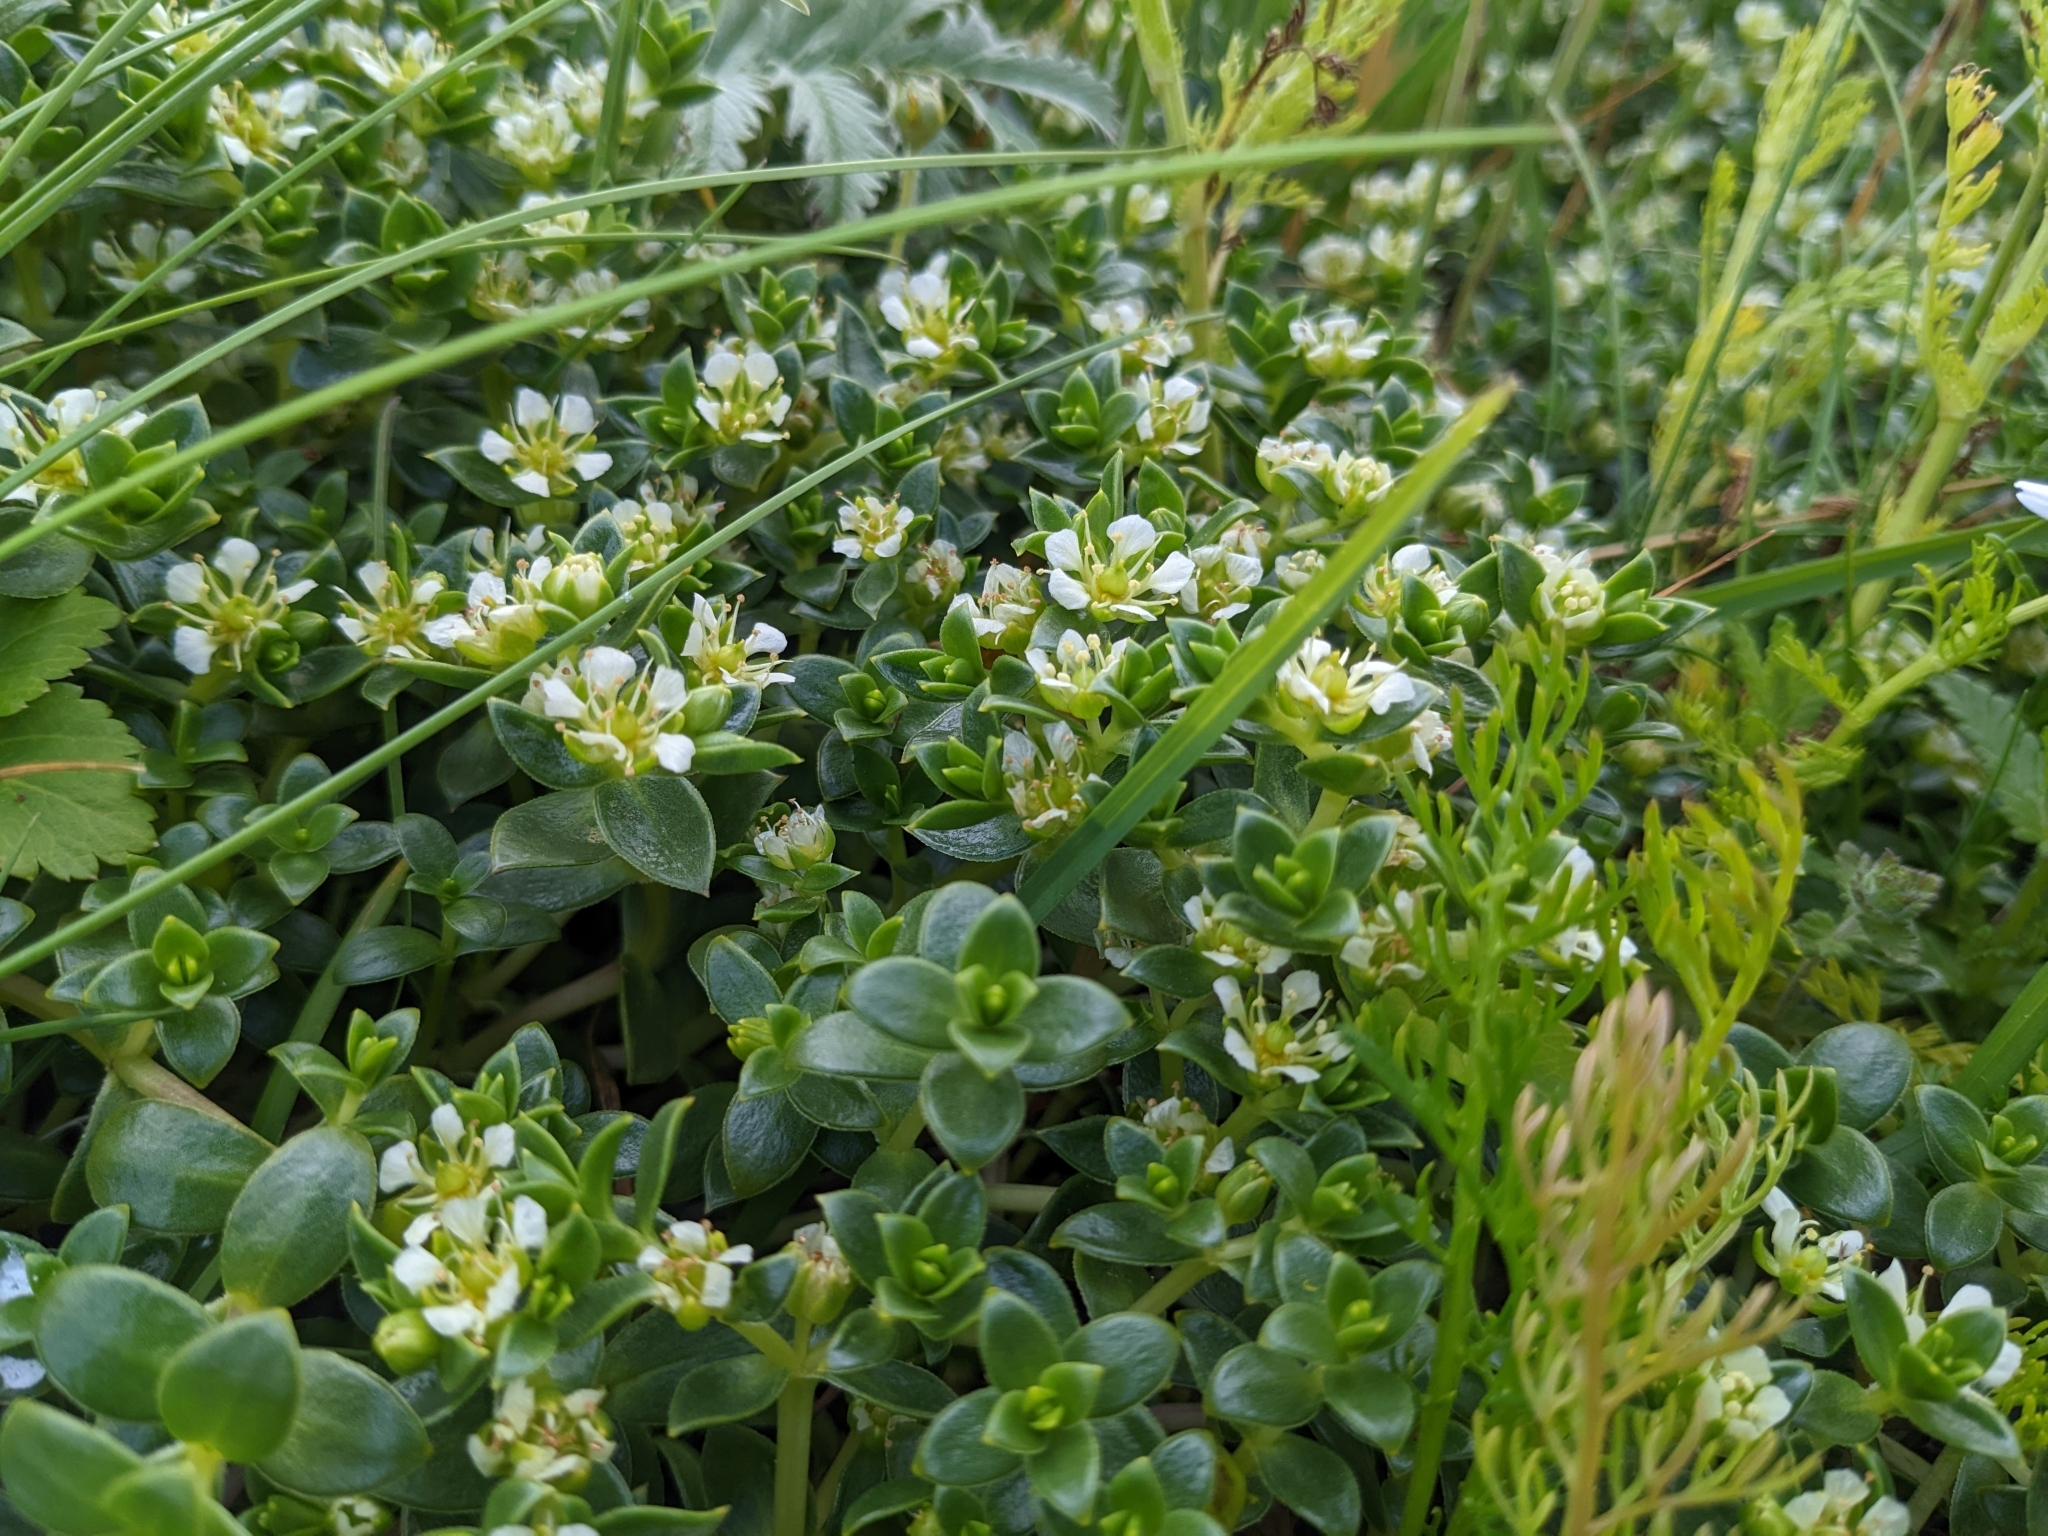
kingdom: Plantae
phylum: Tracheophyta
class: Magnoliopsida
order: Caryophyllales
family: Caryophyllaceae
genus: Honckenya
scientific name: Honckenya peploides
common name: Sea sandwort
